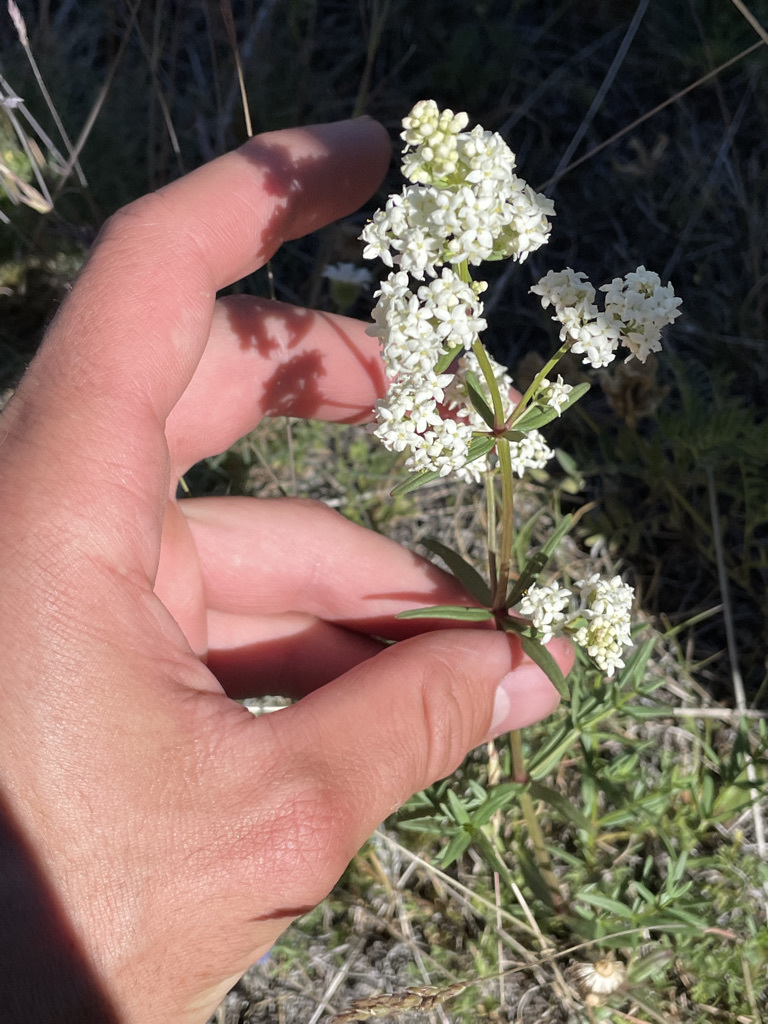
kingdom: Plantae
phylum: Tracheophyta
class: Magnoliopsida
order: Gentianales
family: Rubiaceae
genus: Galium
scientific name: Galium boreale
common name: Northern bedstraw
